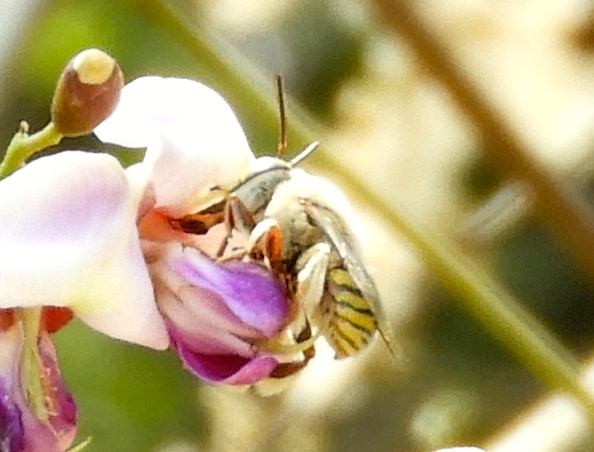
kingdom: Animalia
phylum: Arthropoda
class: Insecta
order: Hymenoptera
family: Apidae
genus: Centris
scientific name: Centris
